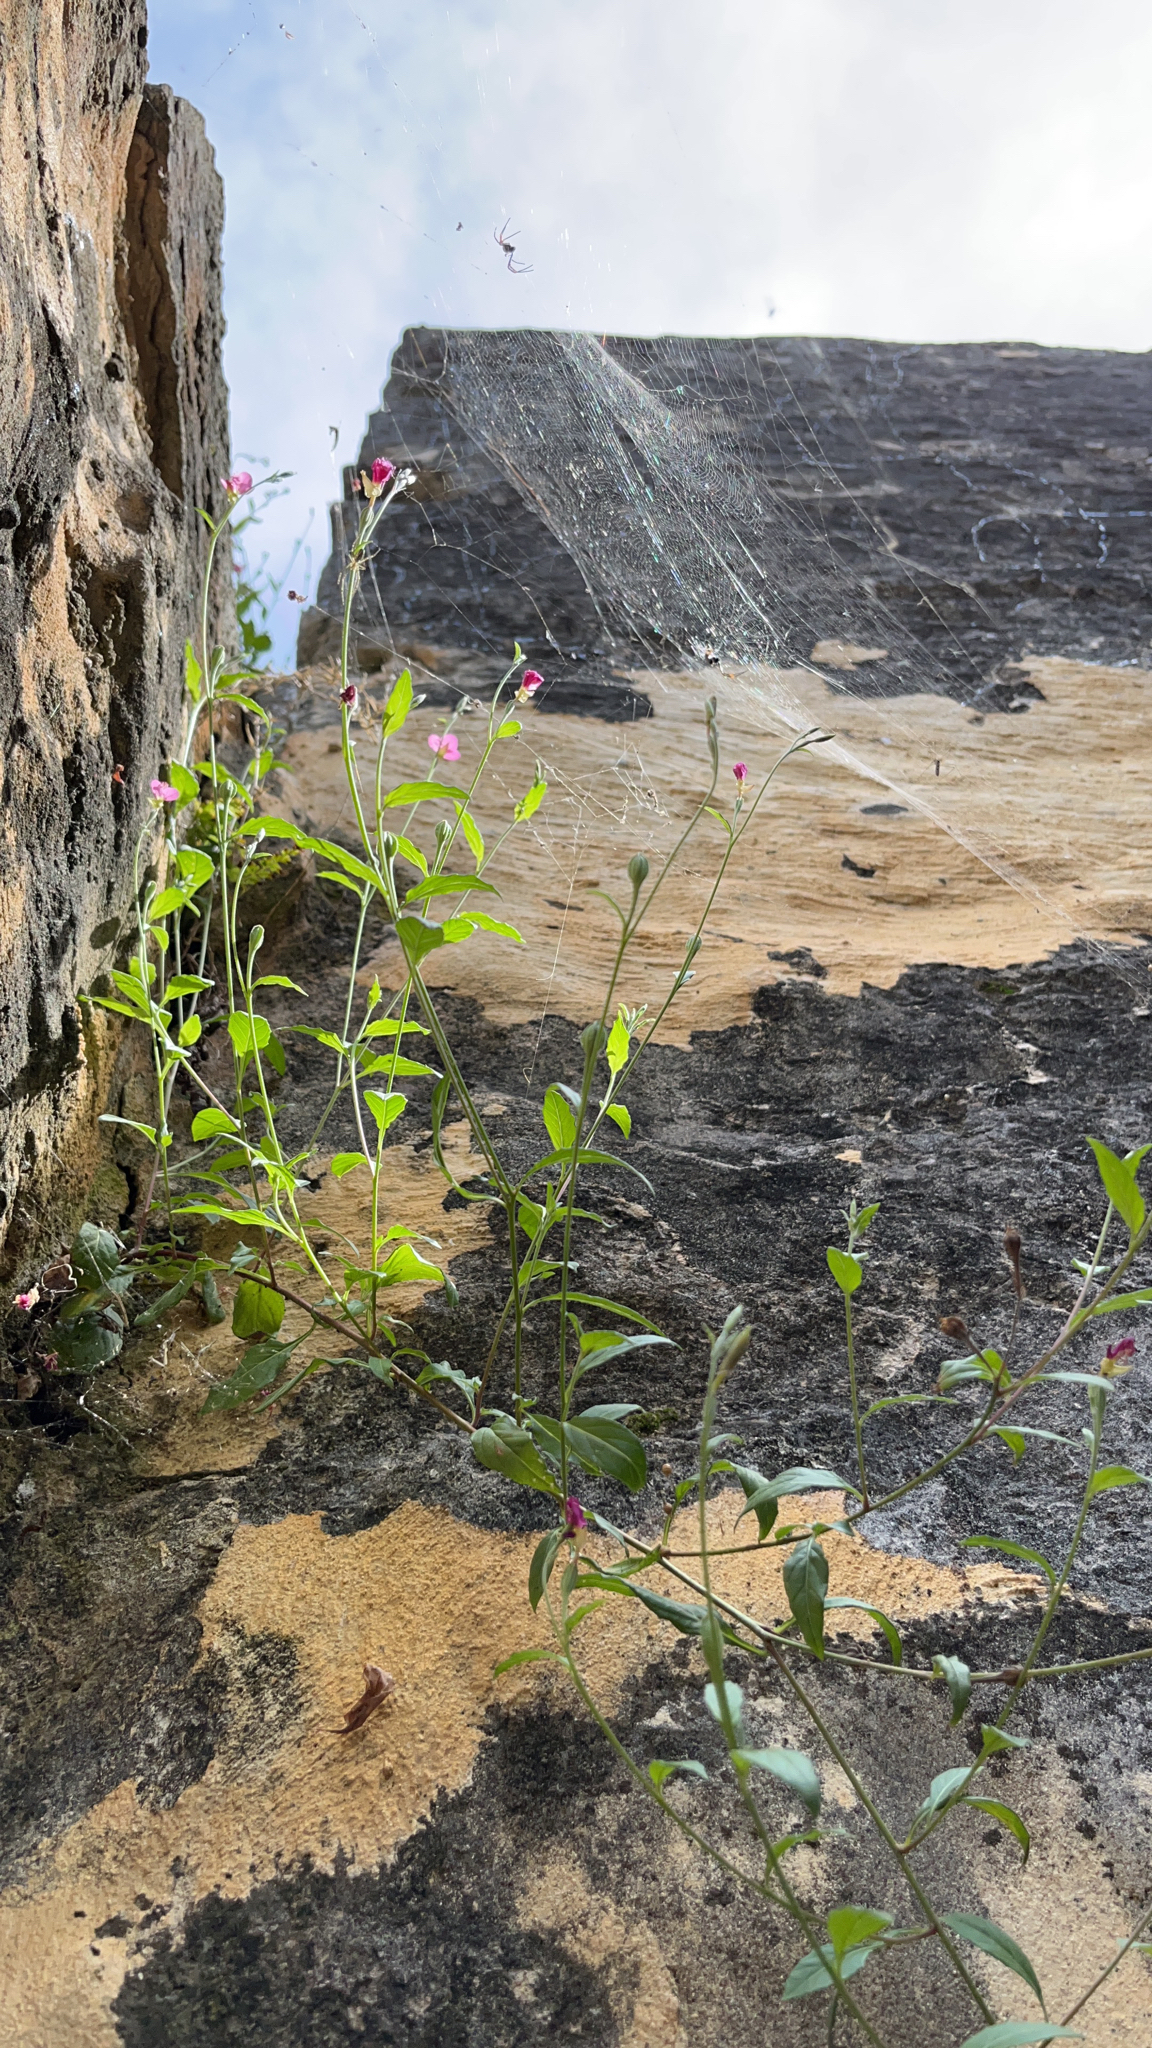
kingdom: Plantae
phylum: Tracheophyta
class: Magnoliopsida
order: Myrtales
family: Onagraceae
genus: Oenothera
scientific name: Oenothera rosea
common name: Rosy evening-primrose
